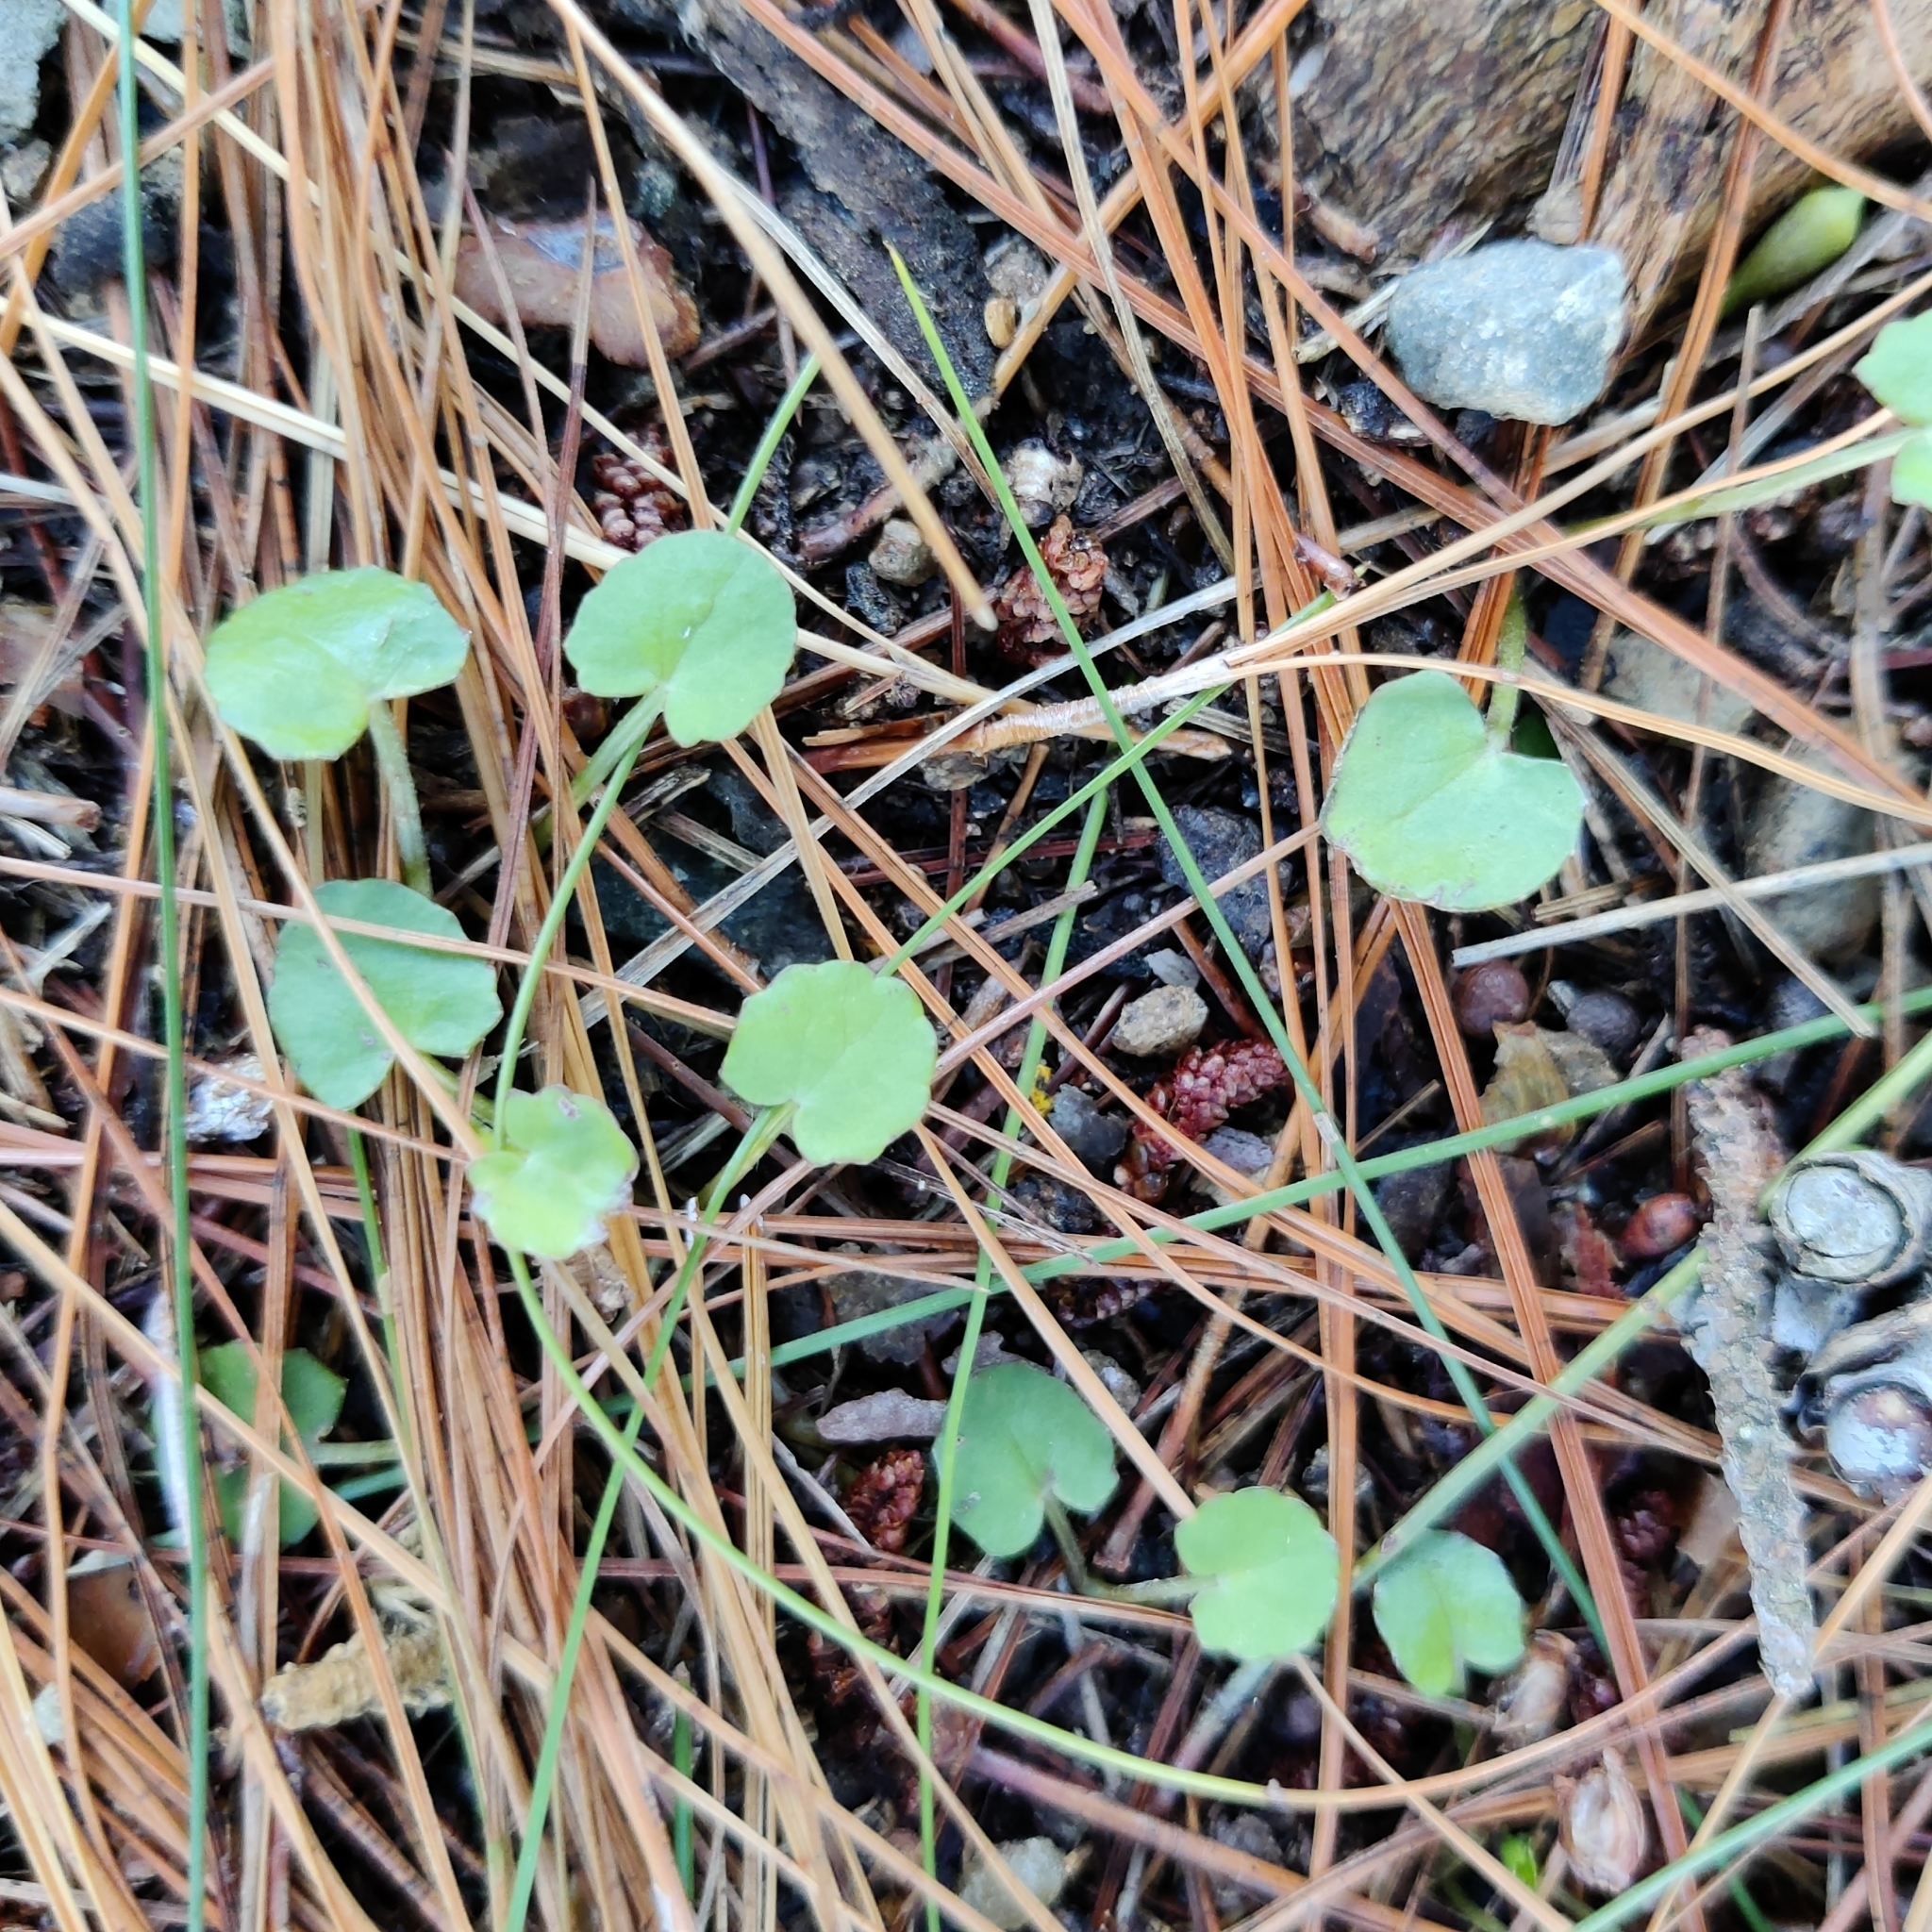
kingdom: Plantae
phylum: Tracheophyta
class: Magnoliopsida
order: Apiales
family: Apiaceae
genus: Centella
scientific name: Centella uniflora
